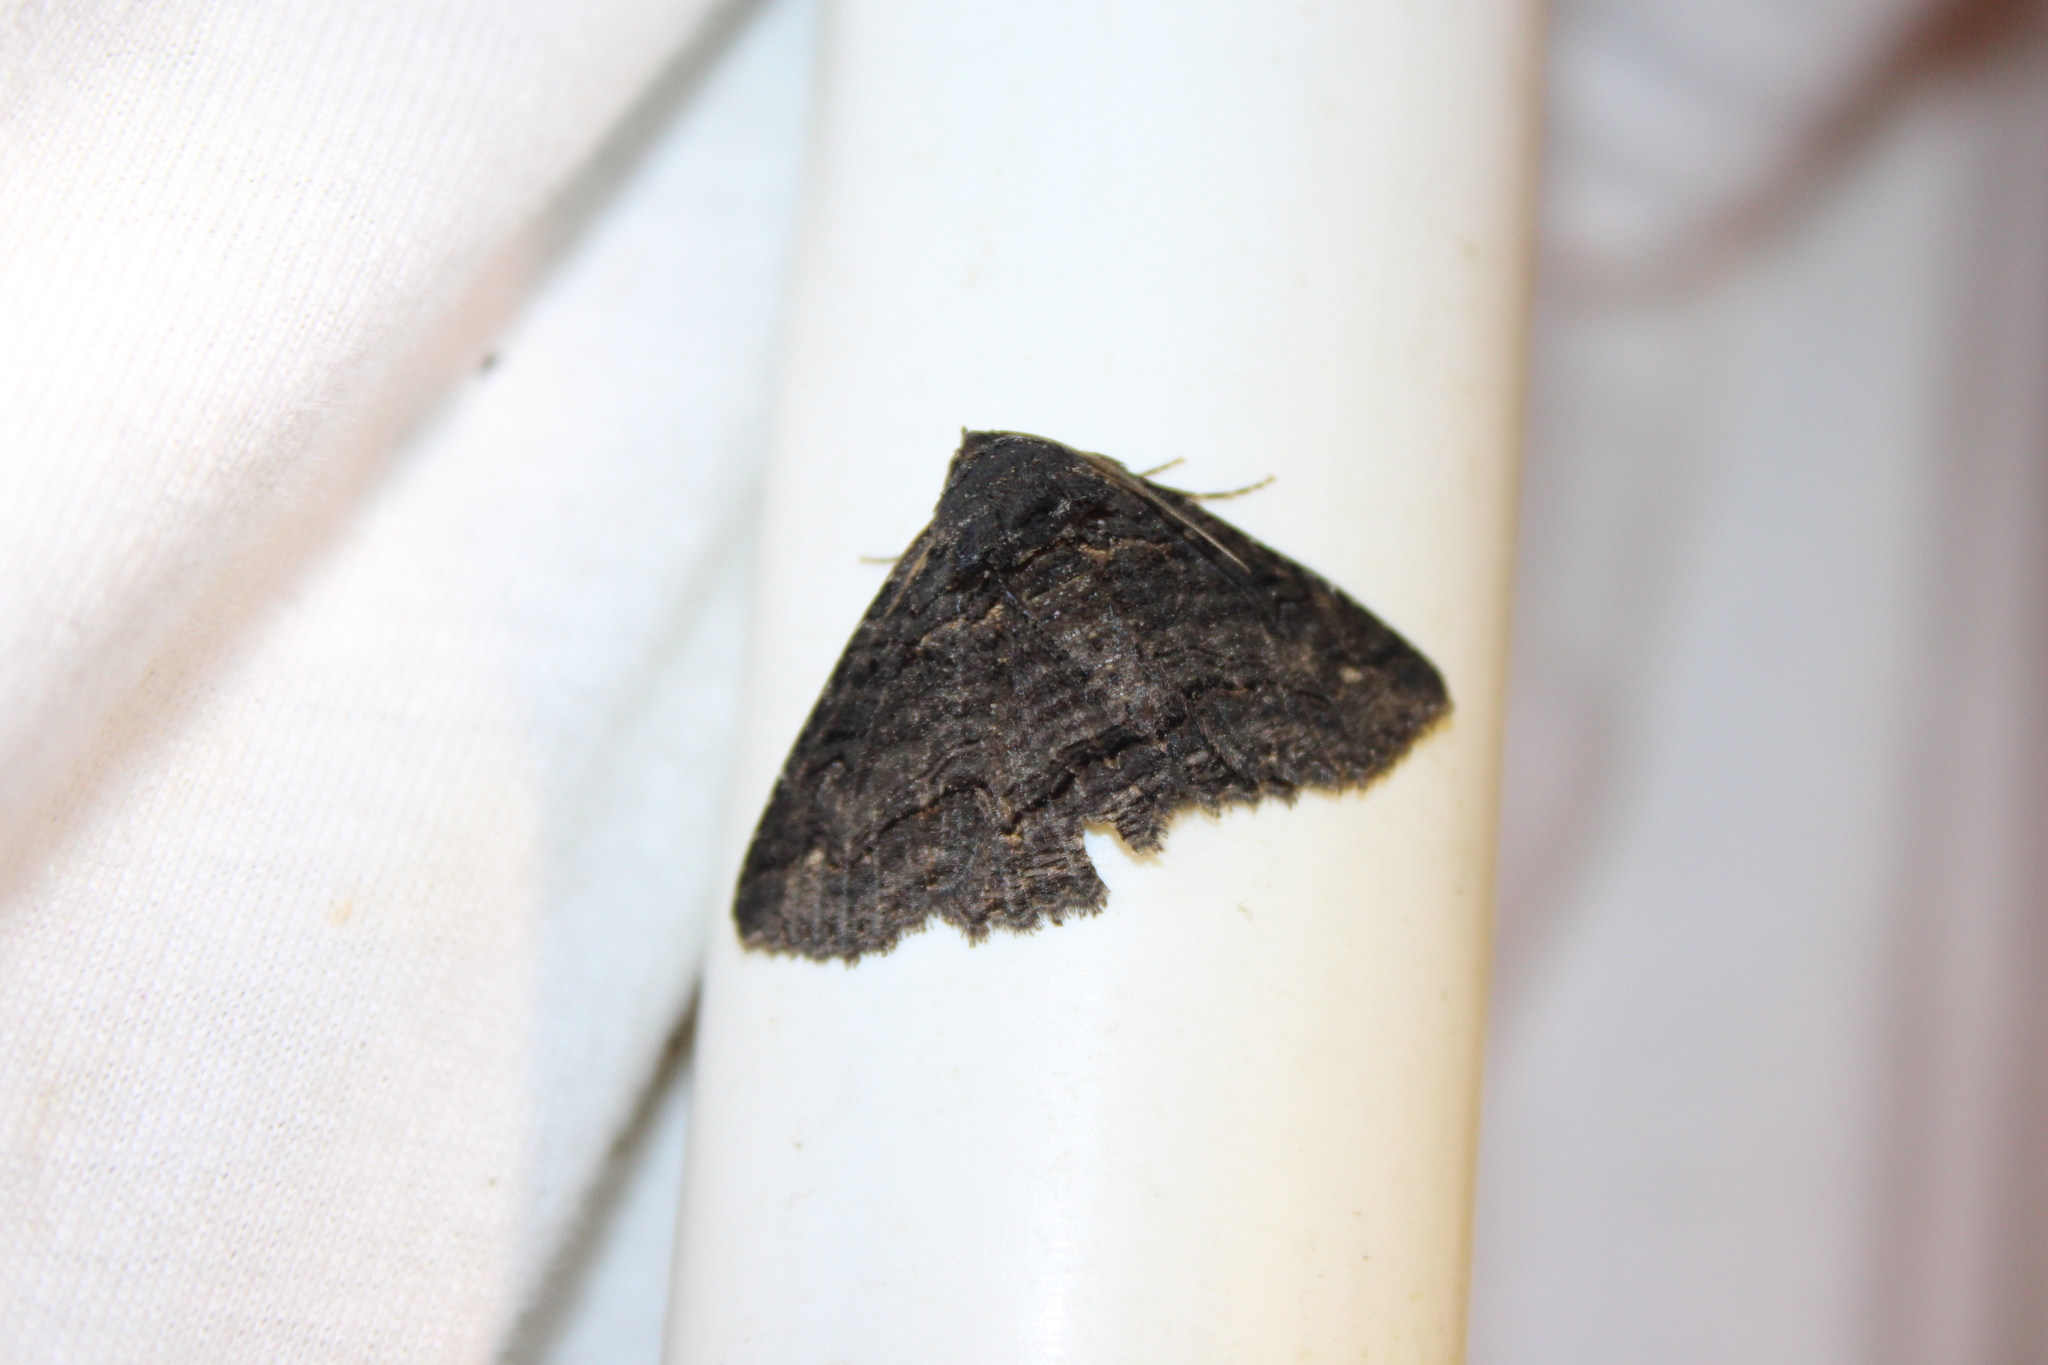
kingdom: Animalia
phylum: Arthropoda
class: Insecta
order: Lepidoptera
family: Erebidae
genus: Zale
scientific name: Zale undularis
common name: Black zale moth
